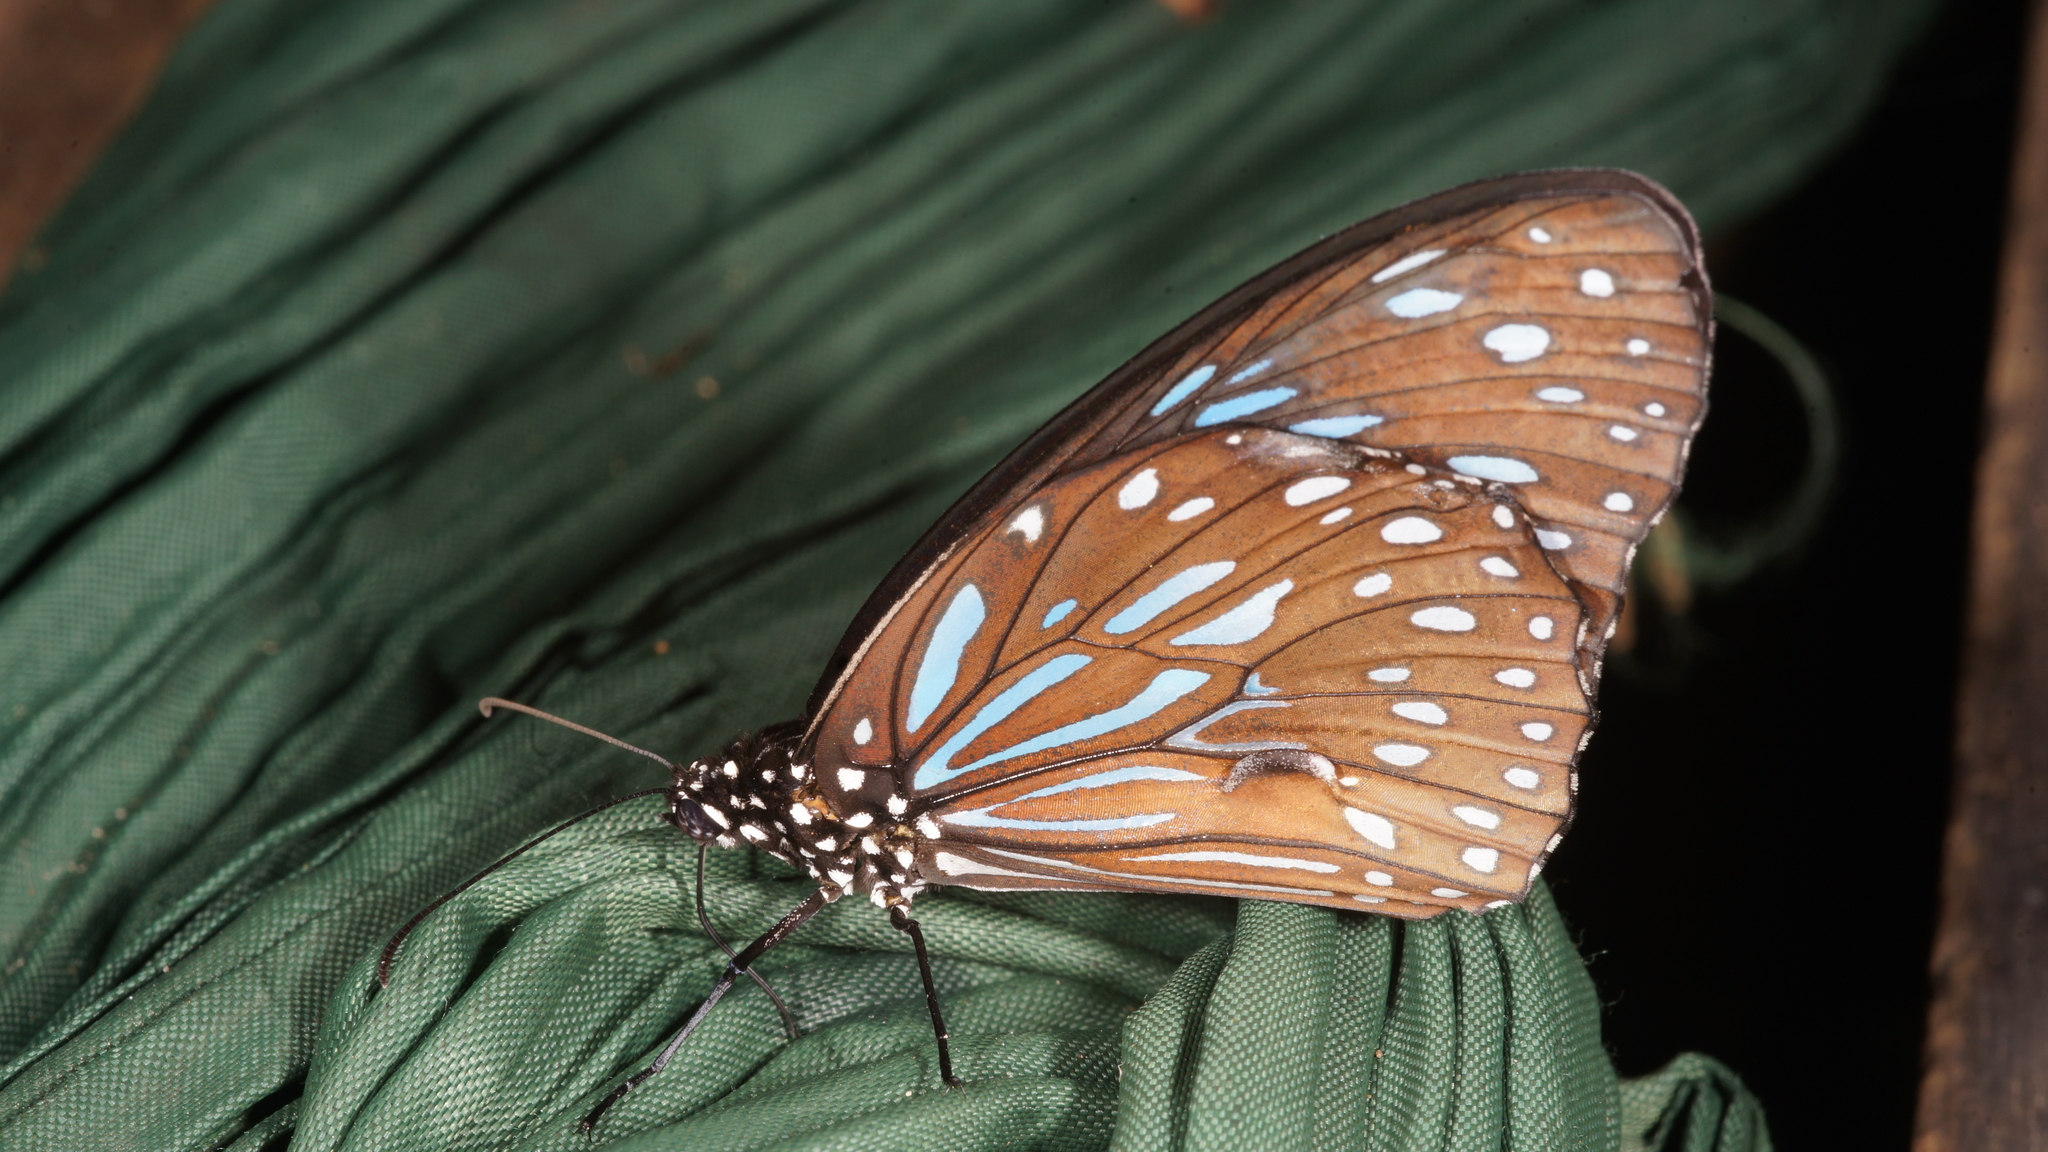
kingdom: Animalia
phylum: Arthropoda
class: Insecta
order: Lepidoptera
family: Nymphalidae
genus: Tirumala
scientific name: Tirumala septentrionis
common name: Dark blue tiger butterfly
